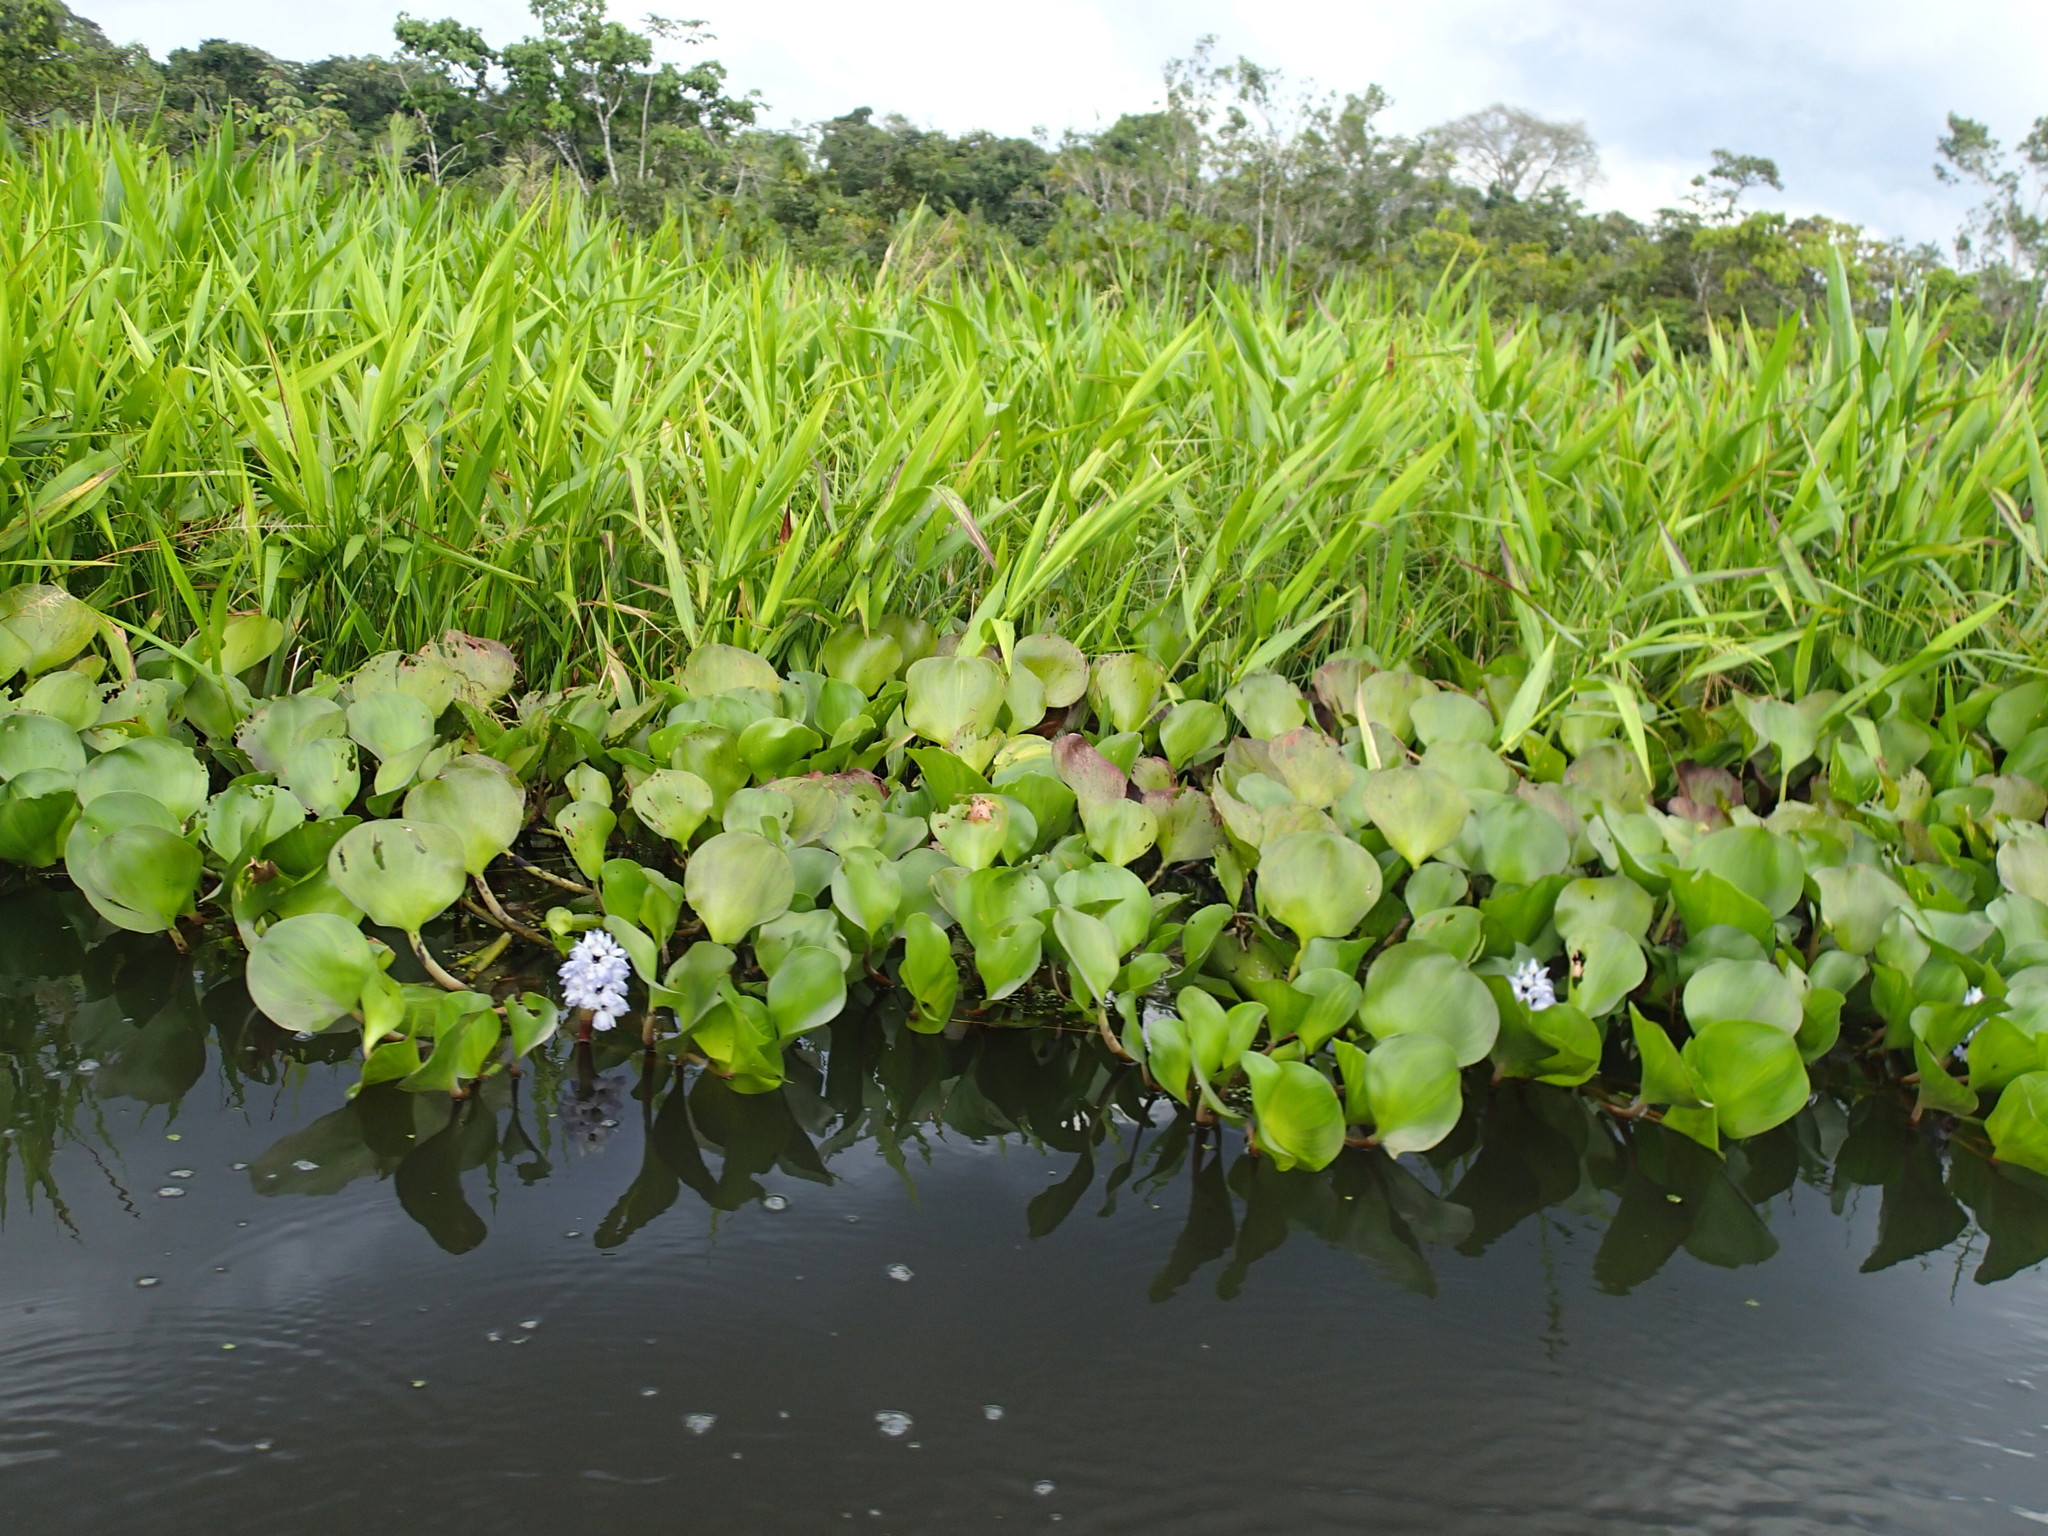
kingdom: Plantae
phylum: Tracheophyta
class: Liliopsida
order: Commelinales
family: Pontederiaceae
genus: Pontederia
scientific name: Pontederia crassipes
